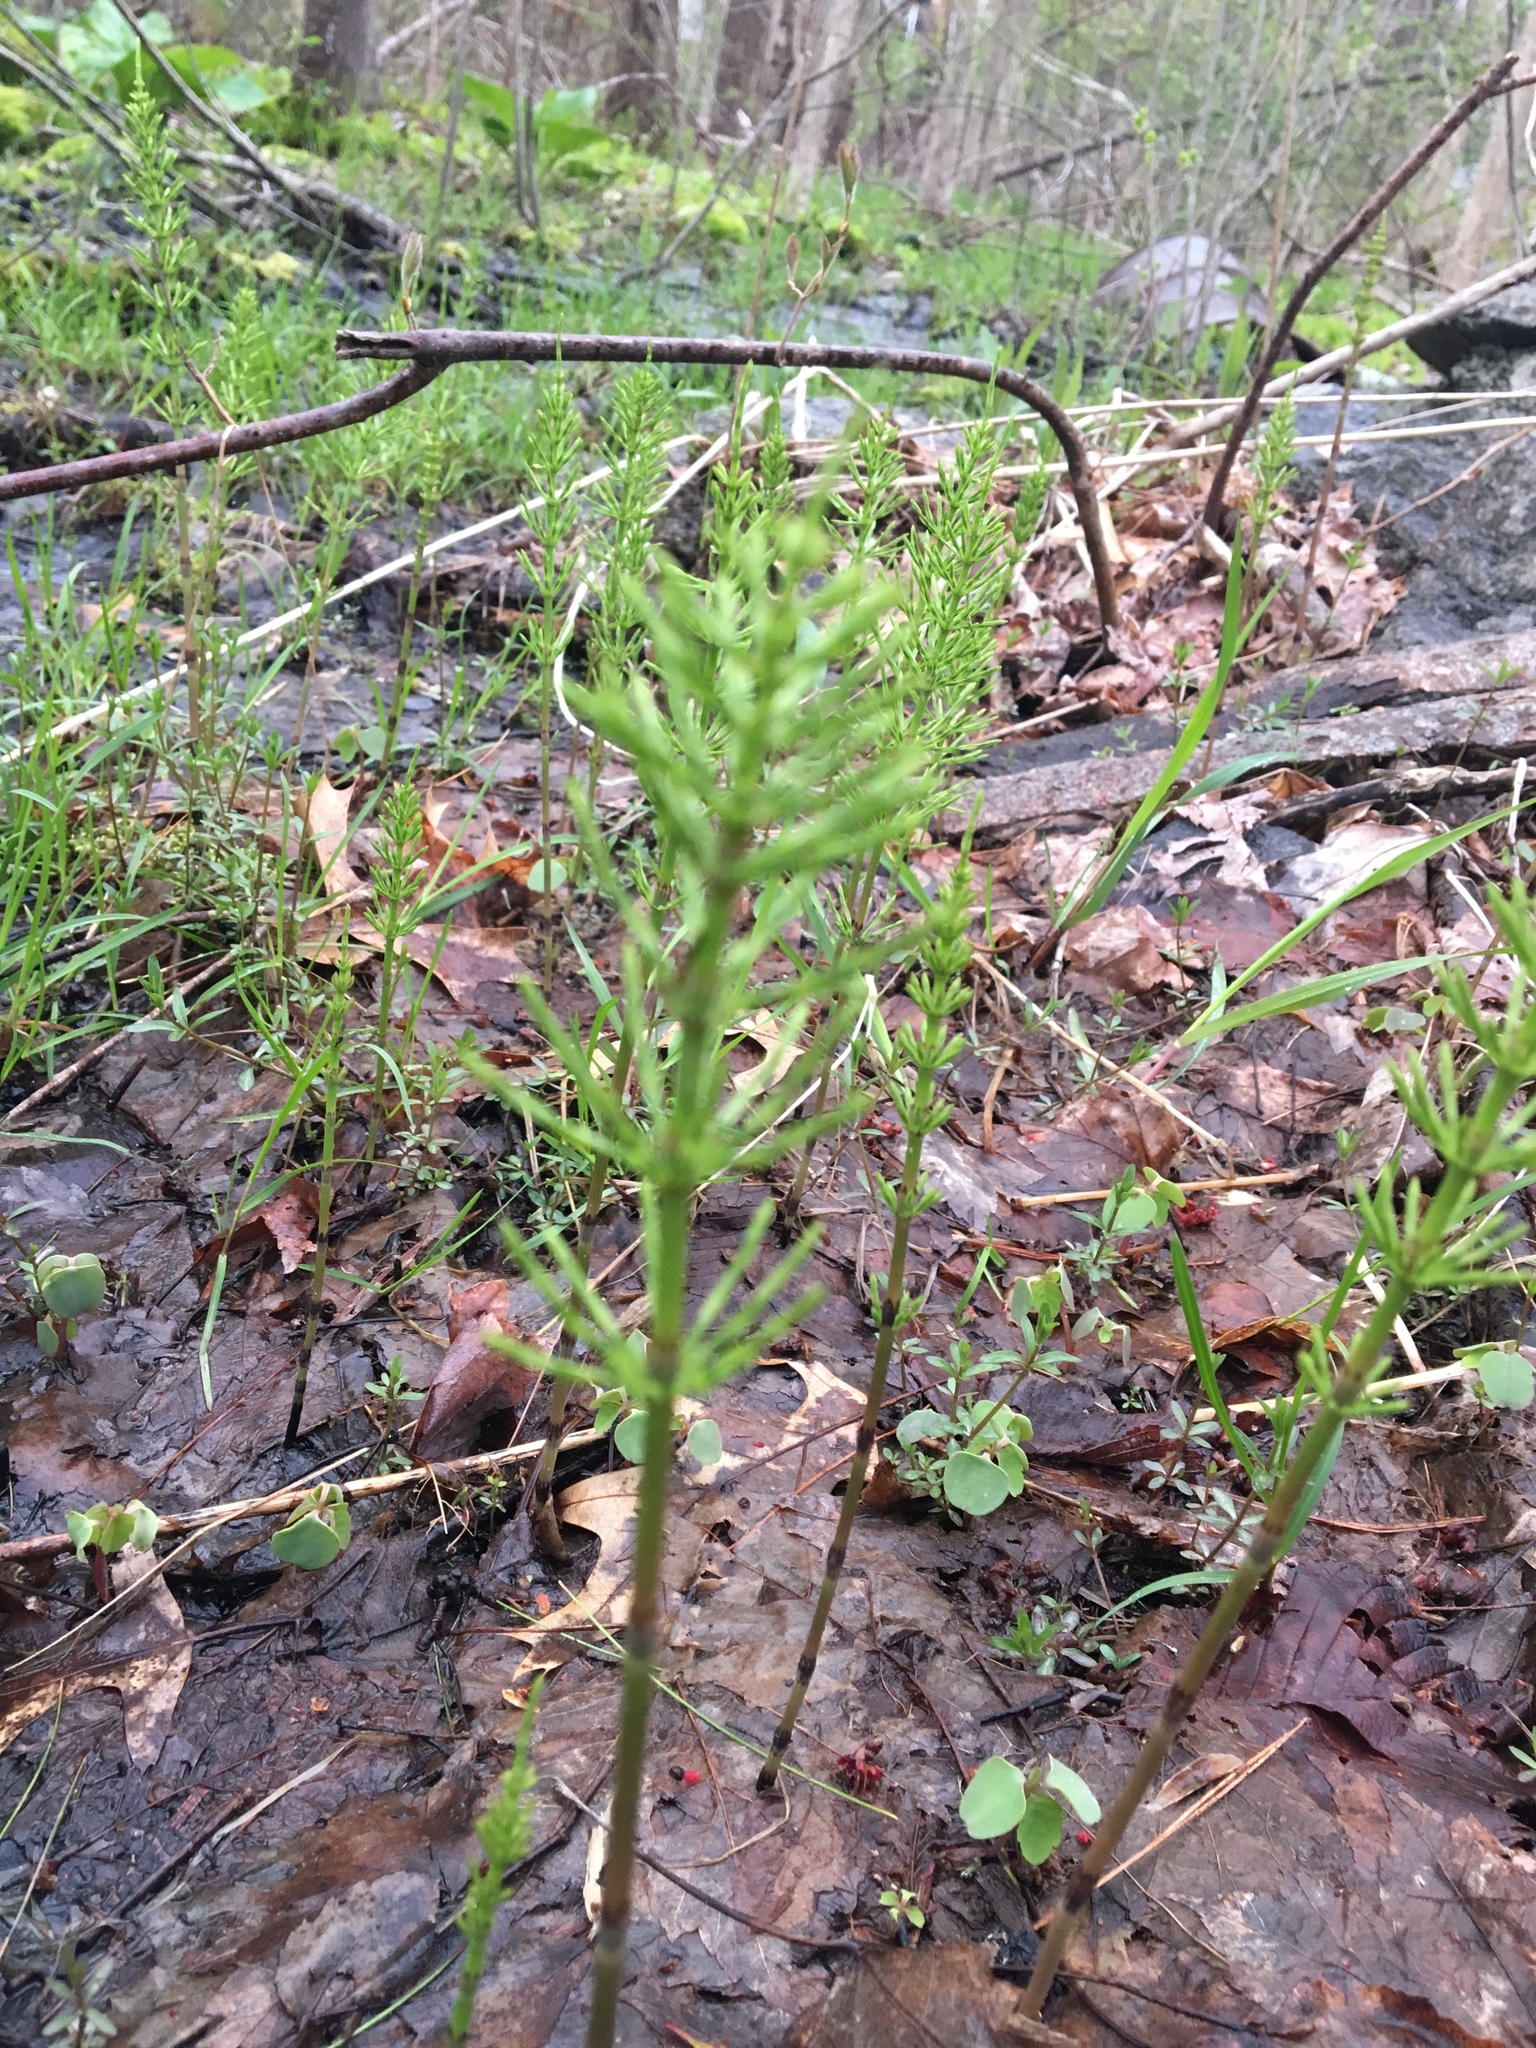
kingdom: Plantae
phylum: Tracheophyta
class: Polypodiopsida
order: Equisetales
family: Equisetaceae
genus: Equisetum
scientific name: Equisetum arvense
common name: Field horsetail
